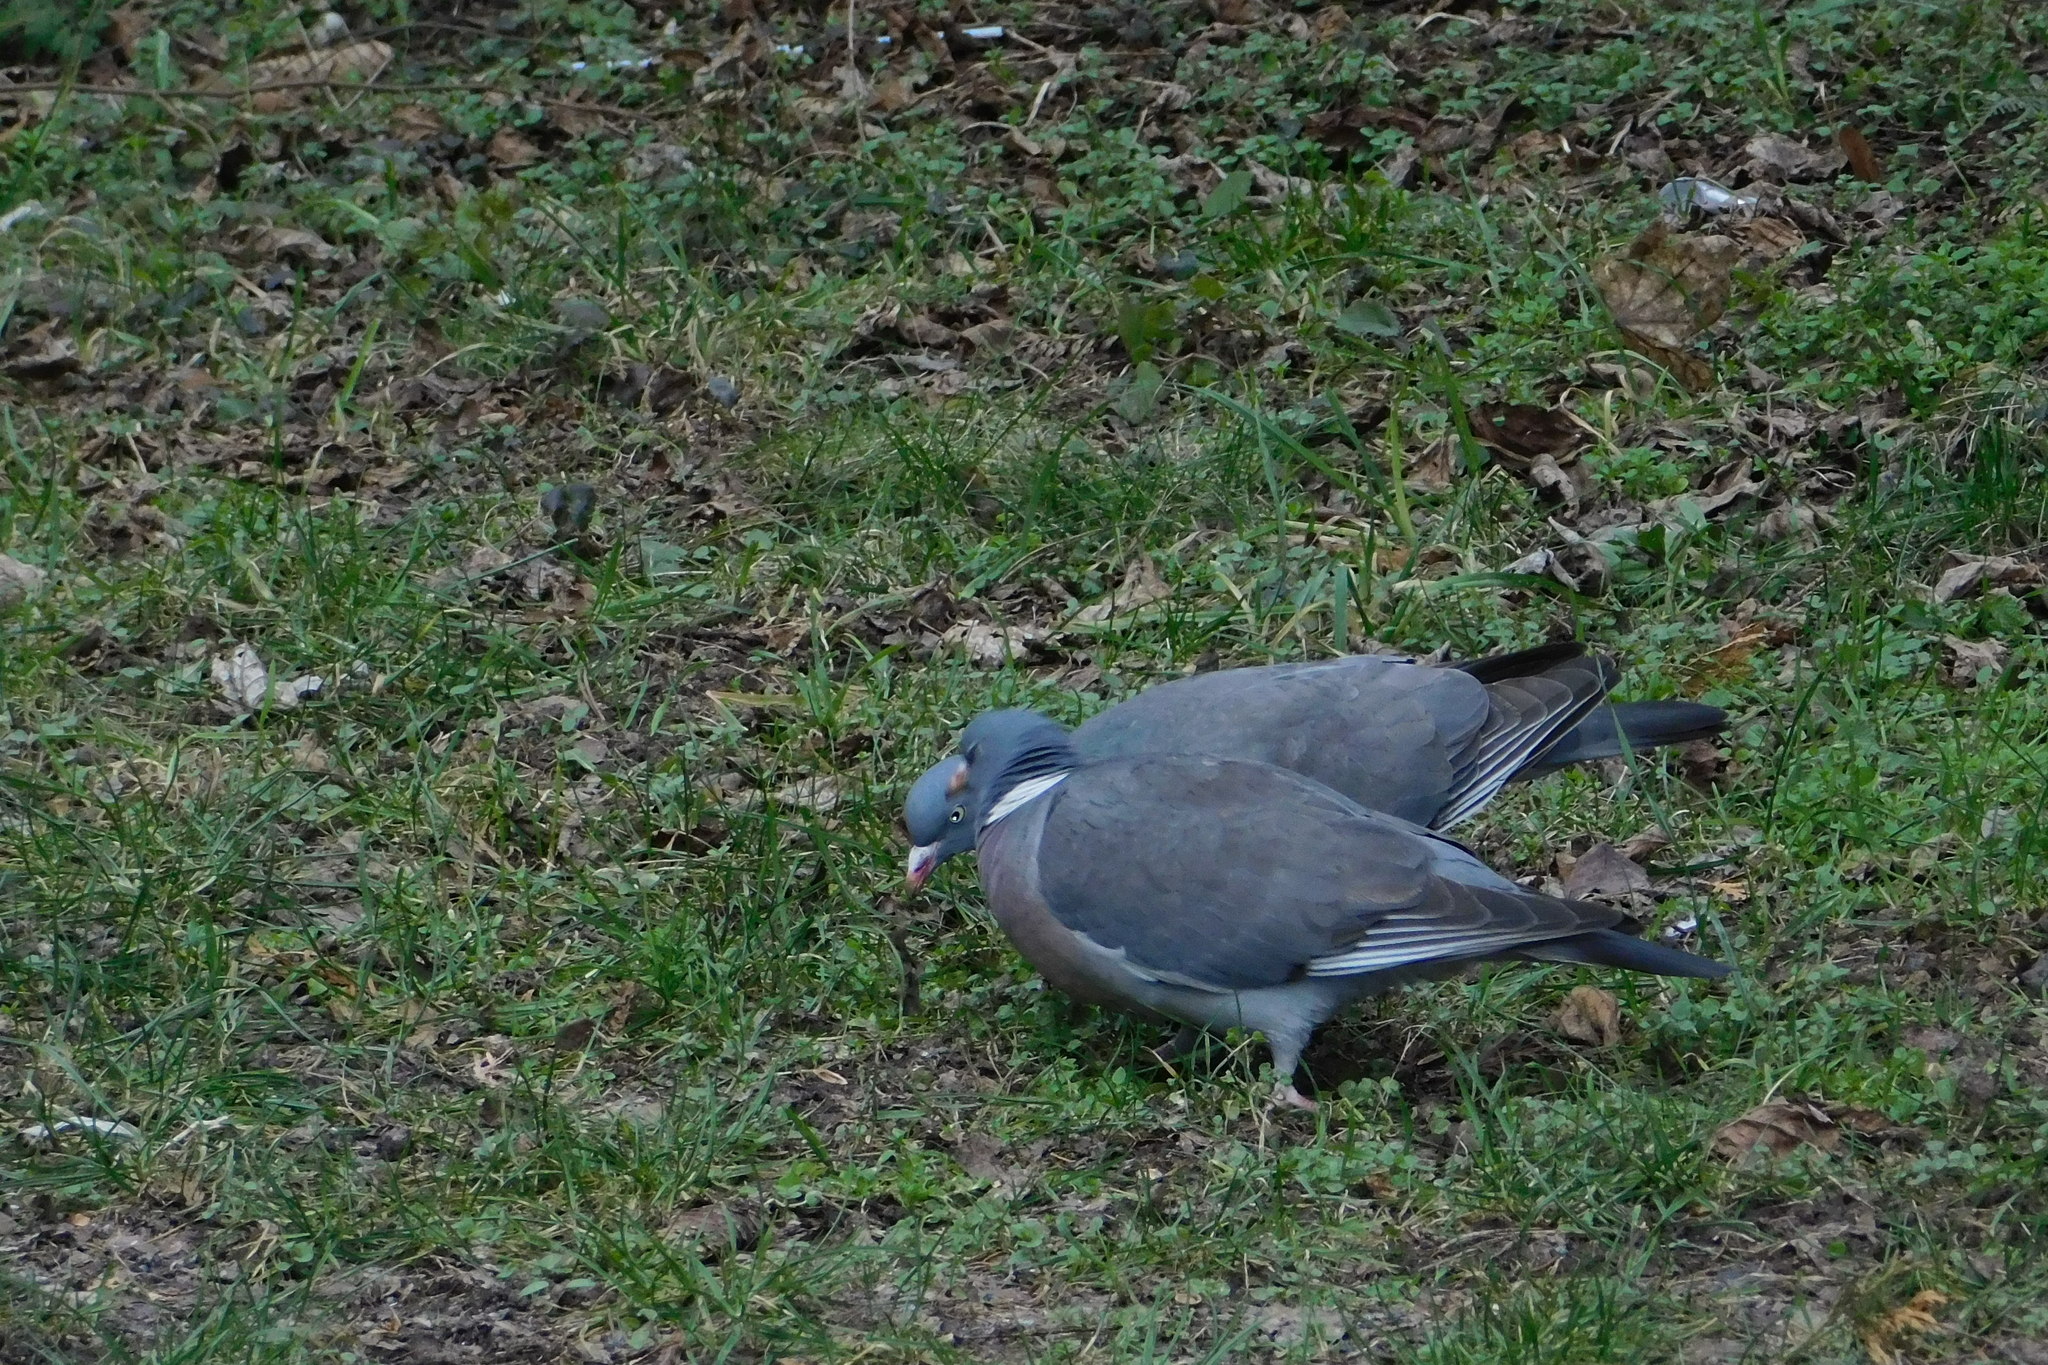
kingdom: Animalia
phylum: Chordata
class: Aves
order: Columbiformes
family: Columbidae
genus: Columba
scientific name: Columba palumbus
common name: Common wood pigeon
